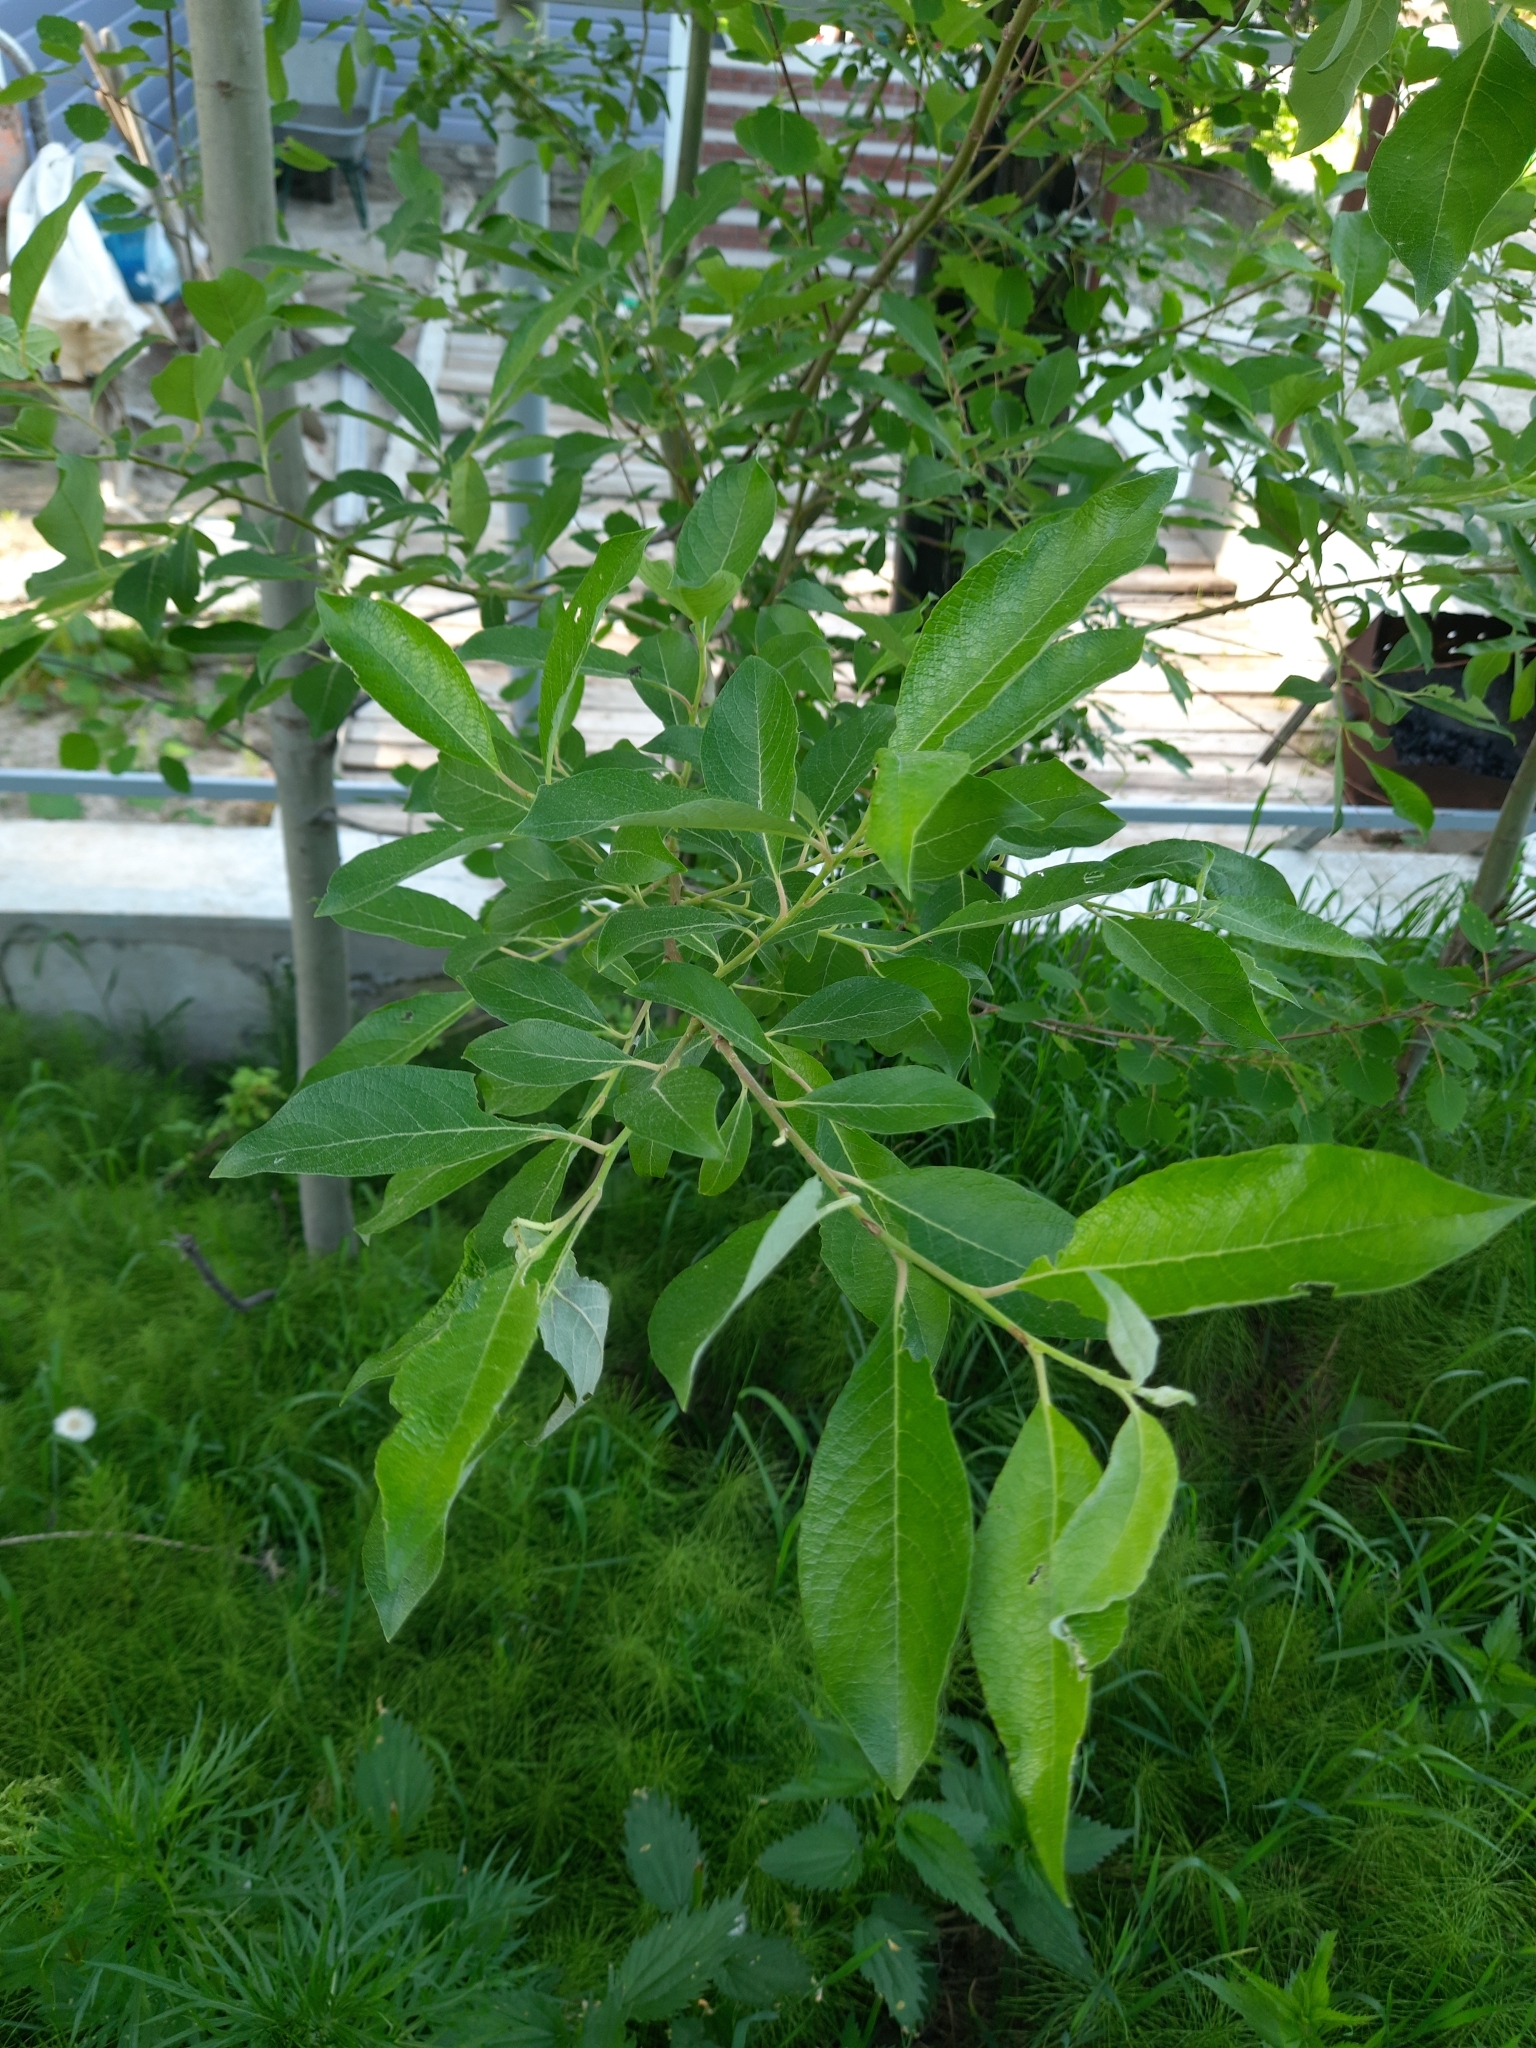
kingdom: Plantae
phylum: Tracheophyta
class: Magnoliopsida
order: Malpighiales
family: Salicaceae
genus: Salix
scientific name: Salix caprea
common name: Goat willow
